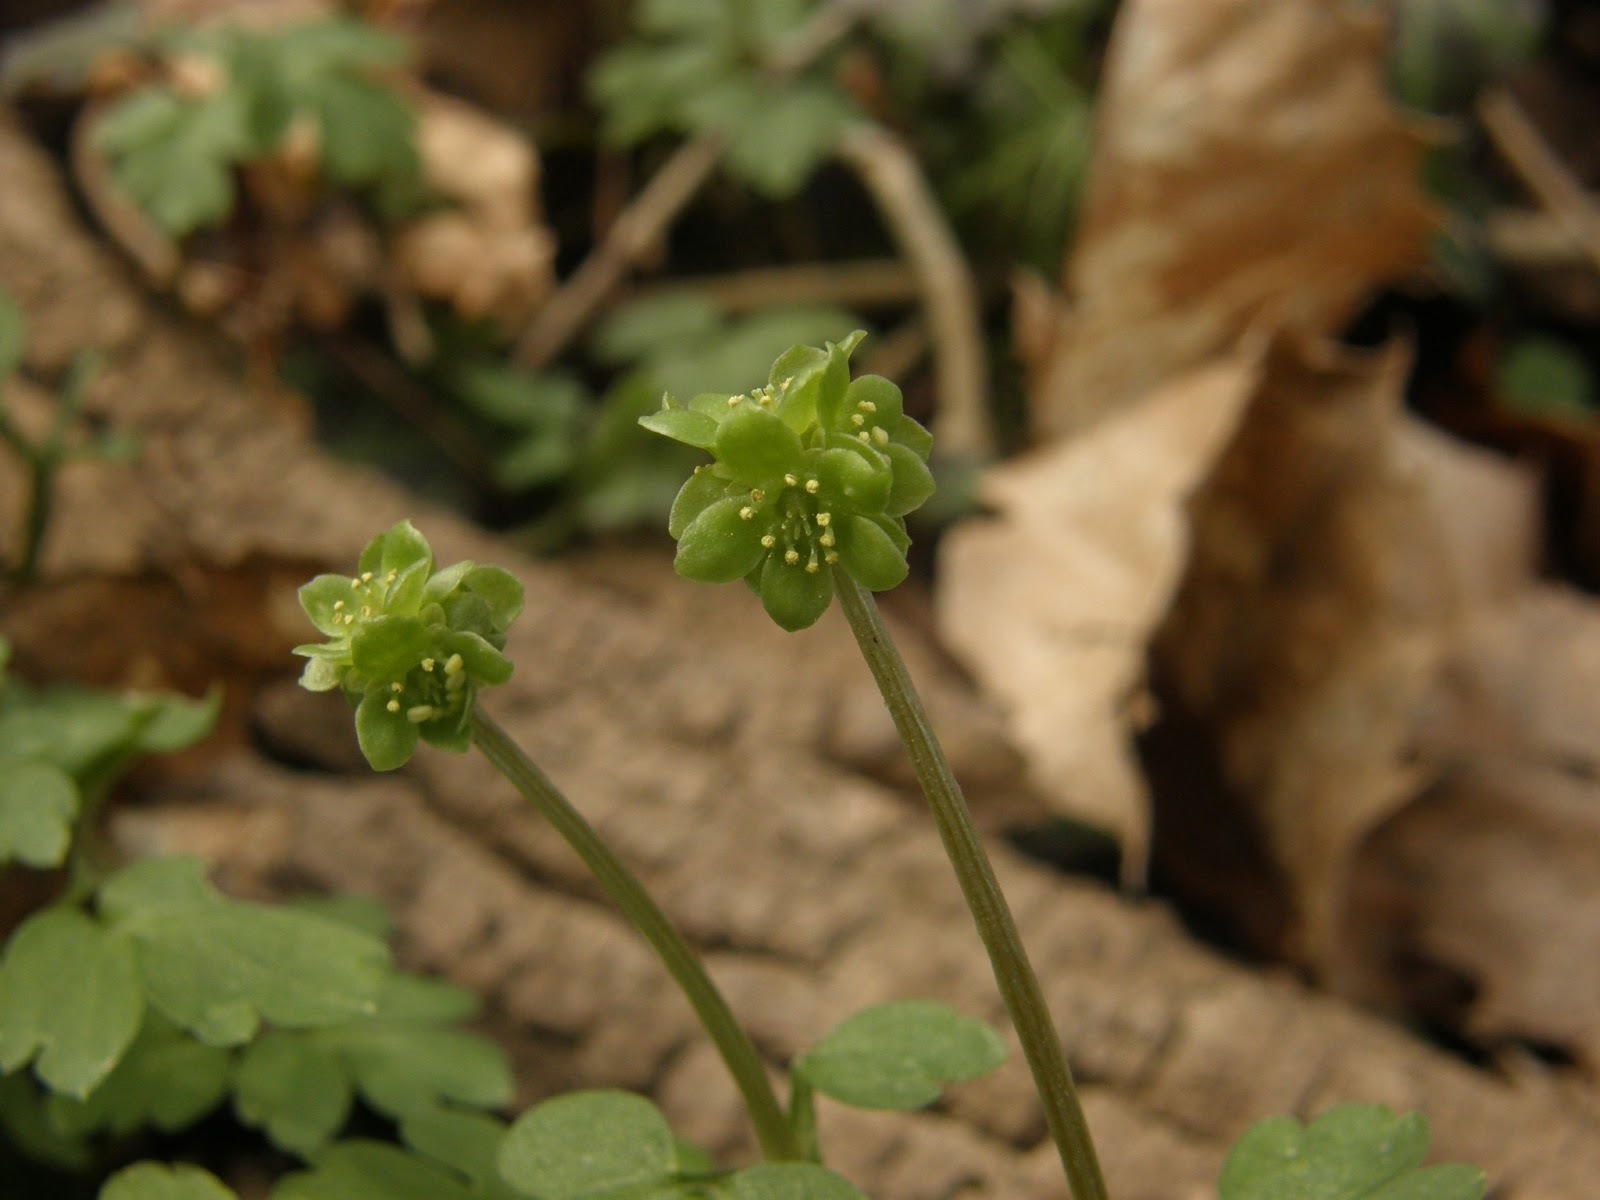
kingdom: Plantae
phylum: Tracheophyta
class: Magnoliopsida
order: Dipsacales
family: Viburnaceae
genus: Adoxa
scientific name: Adoxa moschatellina
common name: Moschatel
